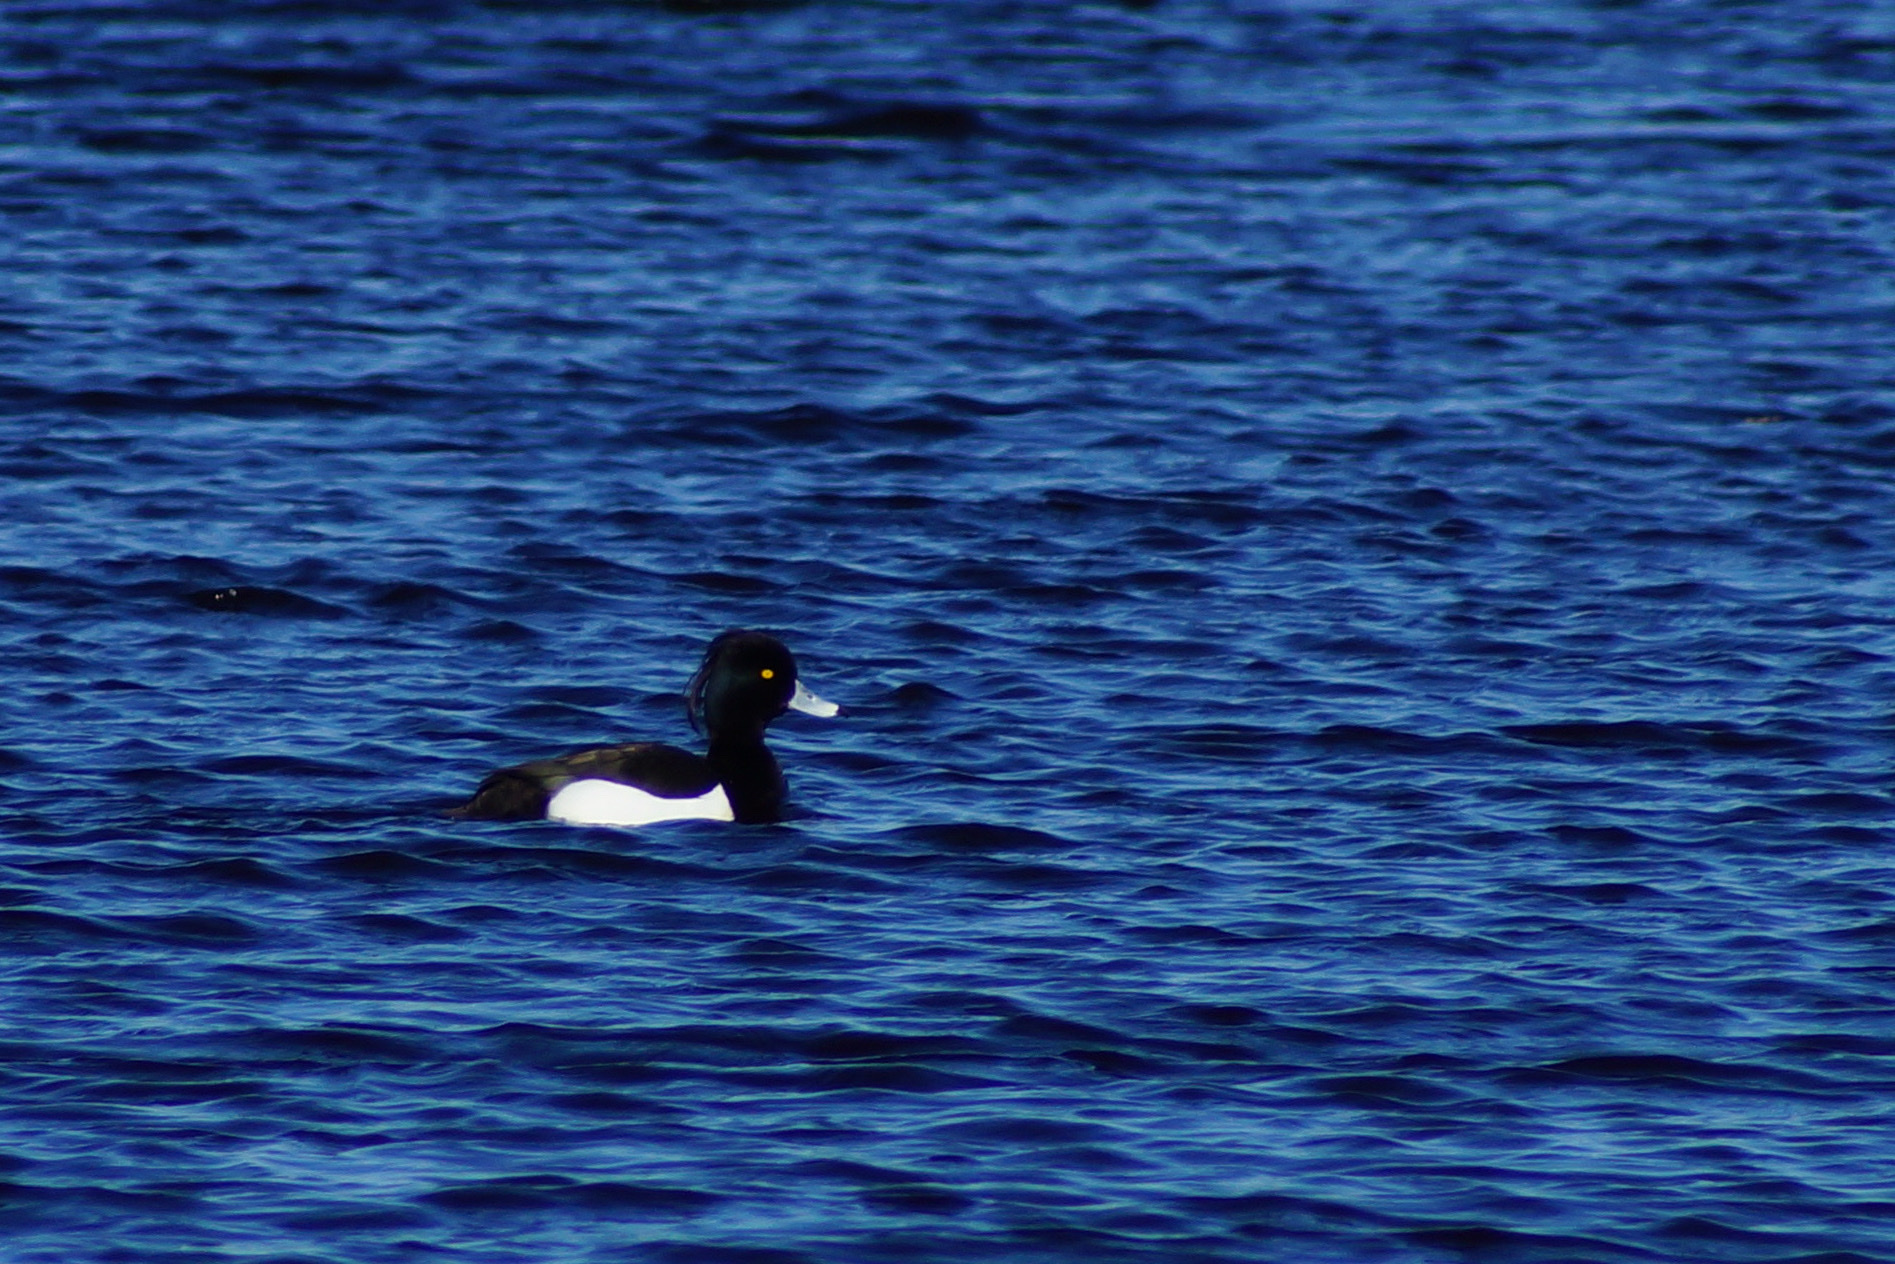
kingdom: Animalia
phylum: Chordata
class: Aves
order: Anseriformes
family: Anatidae
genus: Aythya
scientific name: Aythya fuligula
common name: Tufted duck
